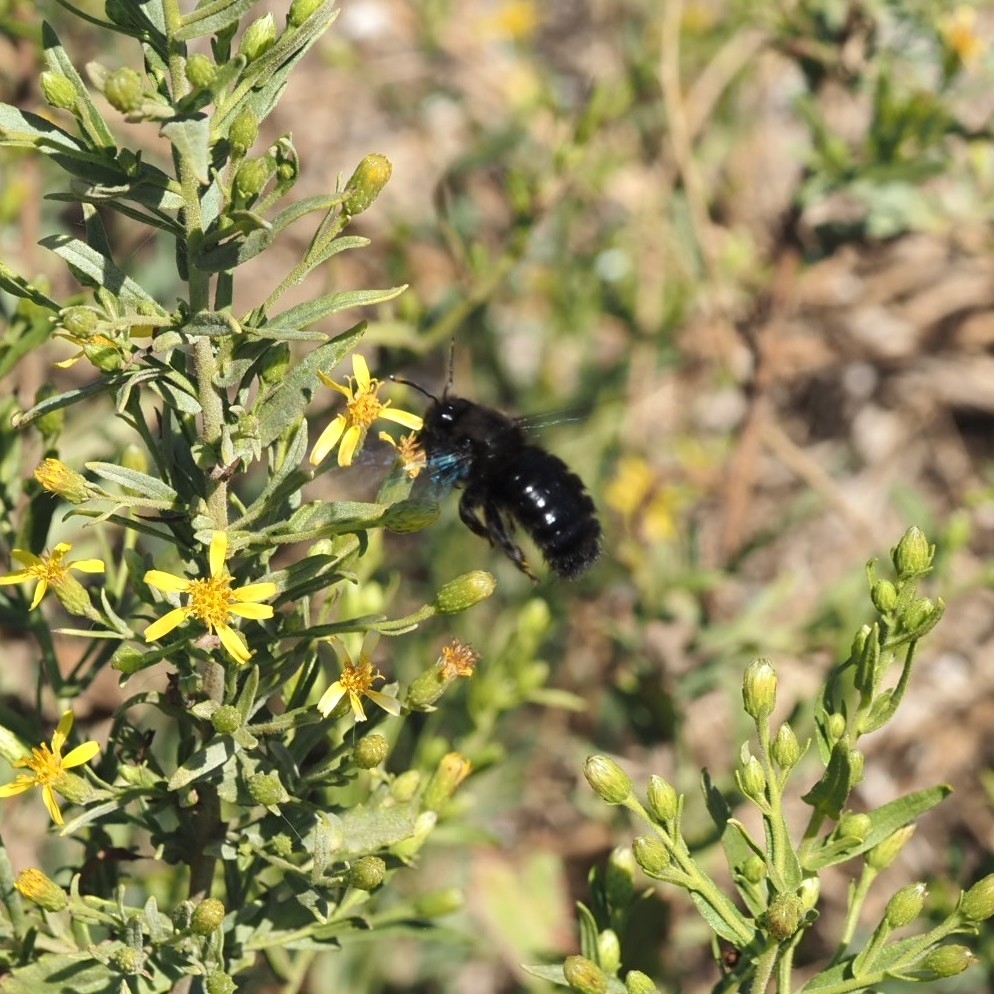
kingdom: Animalia
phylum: Arthropoda
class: Insecta
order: Hymenoptera
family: Apidae
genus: Xylocopa
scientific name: Xylocopa violacea
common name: Violet carpenter bee
